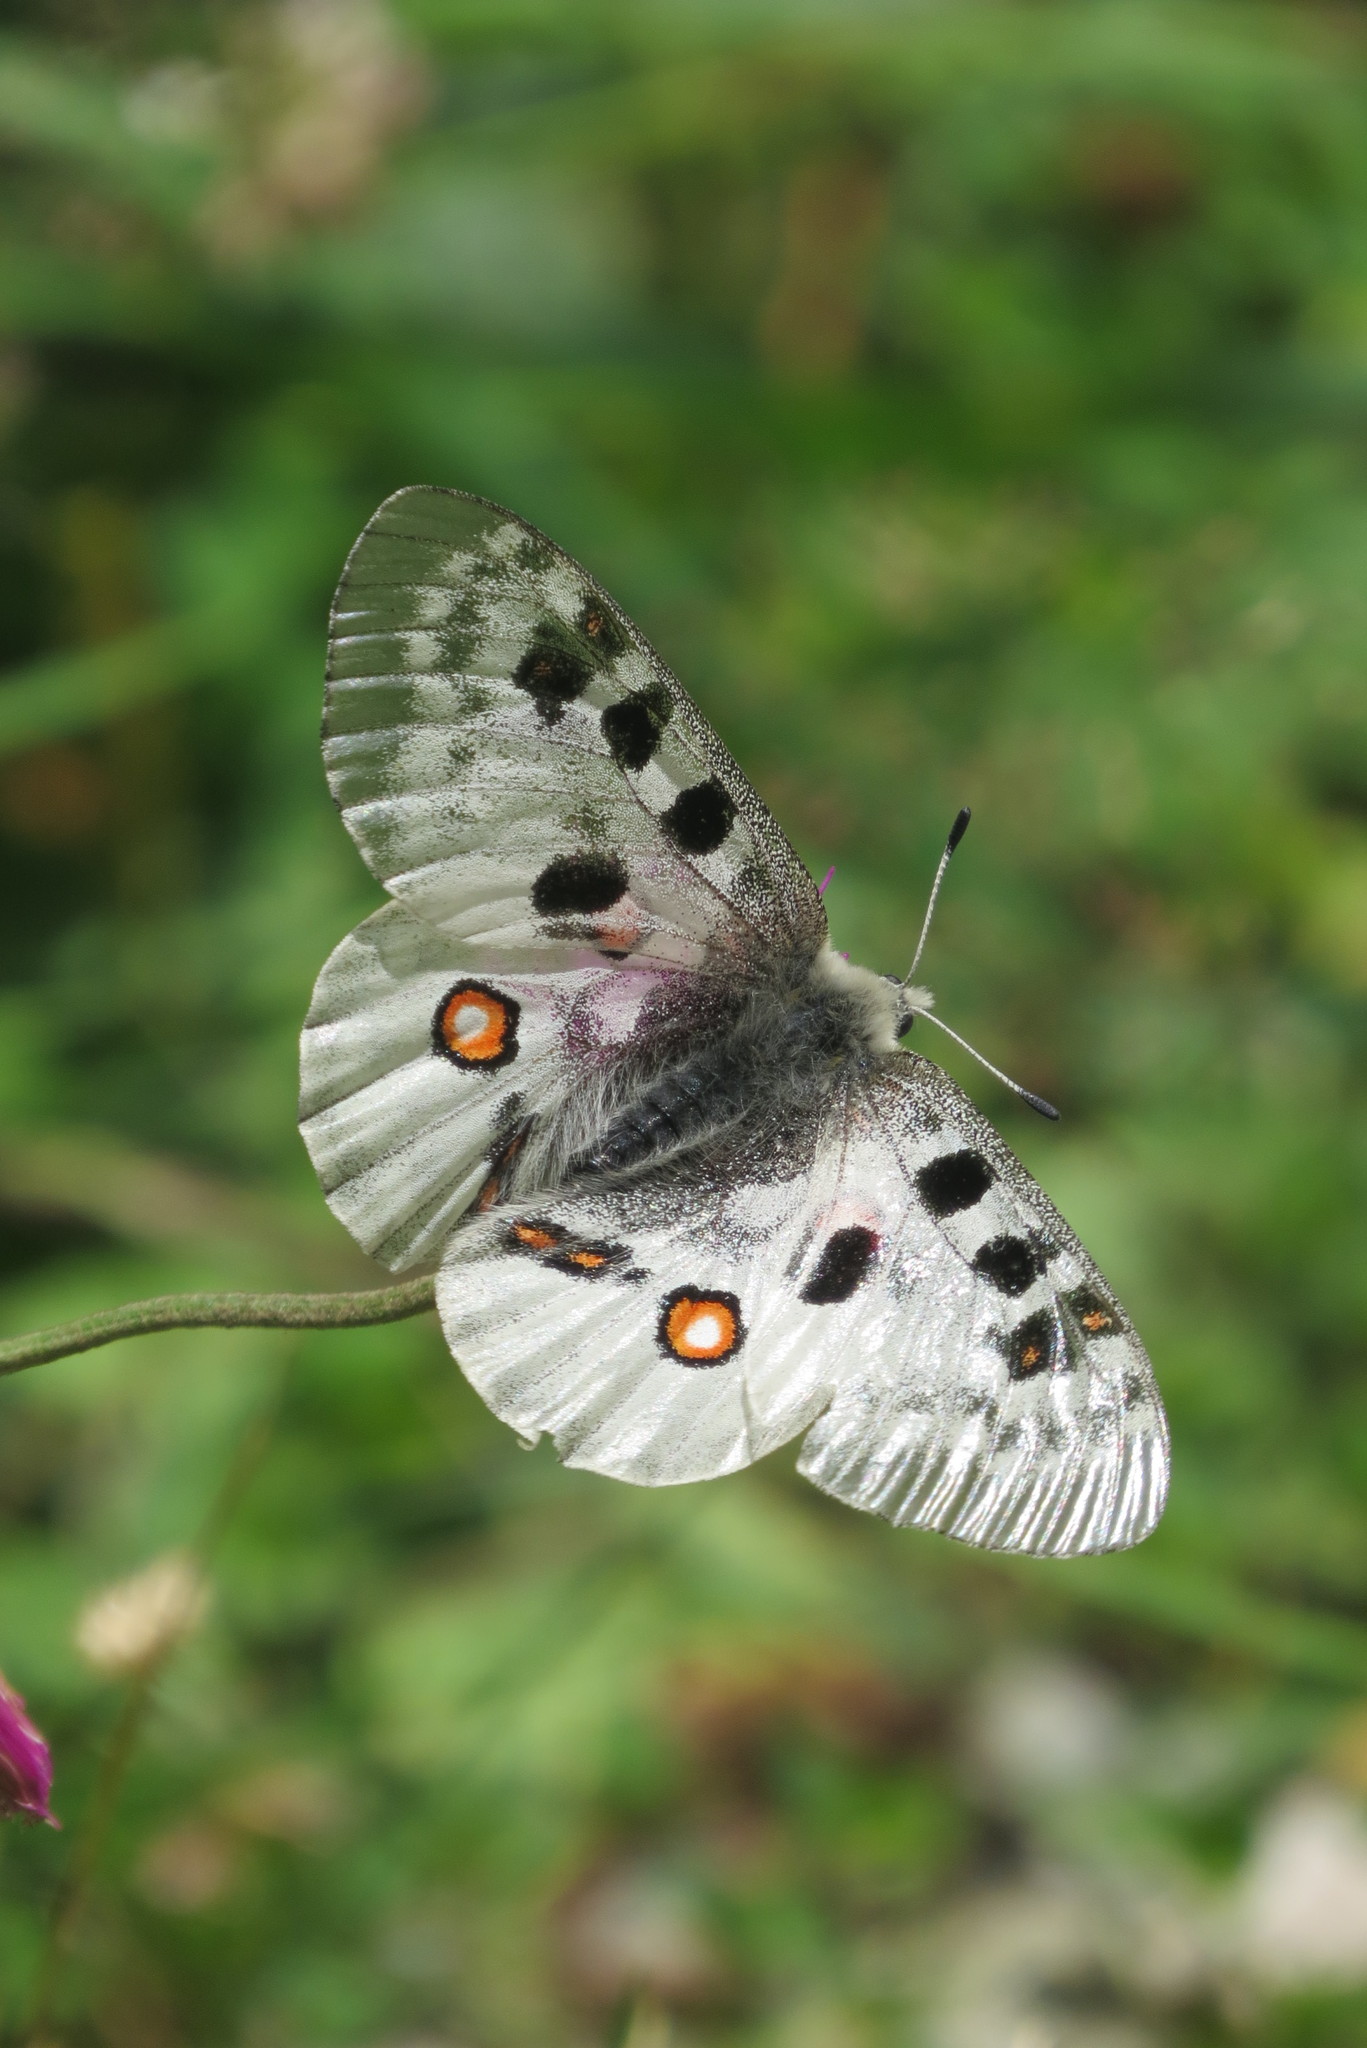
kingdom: Animalia
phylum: Arthropoda
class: Insecta
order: Lepidoptera
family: Papilionidae
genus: Parnassius
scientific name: Parnassius apollo
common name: Apollo
